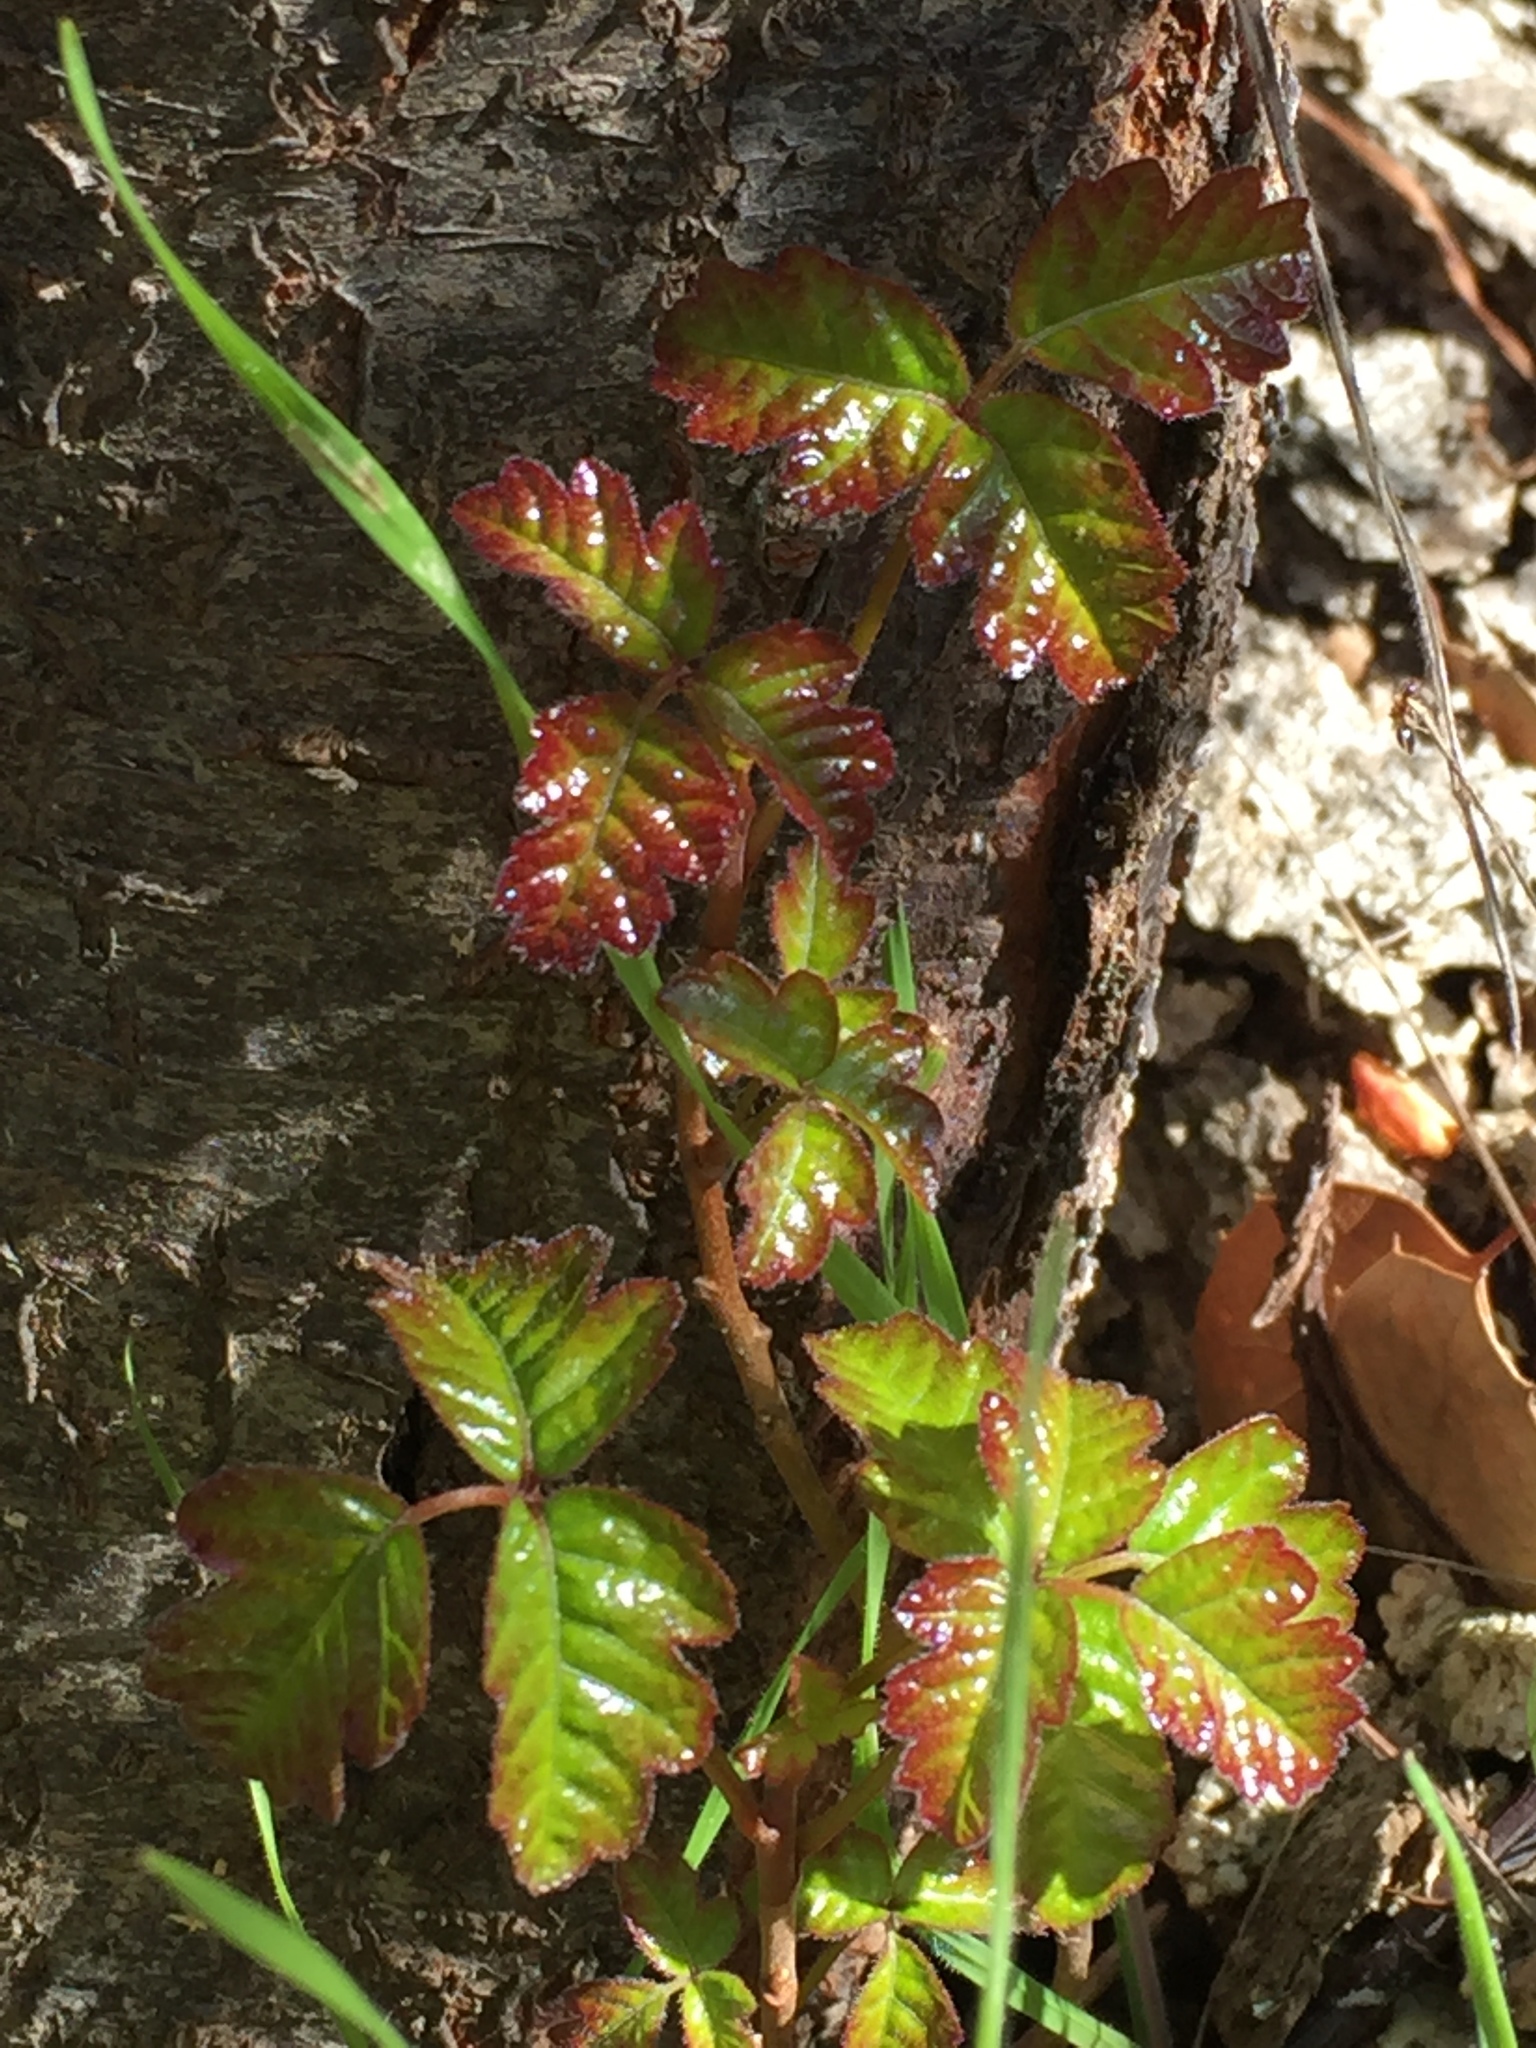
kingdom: Plantae
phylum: Tracheophyta
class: Magnoliopsida
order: Sapindales
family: Anacardiaceae
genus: Toxicodendron
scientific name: Toxicodendron diversilobum
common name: Pacific poison-oak
